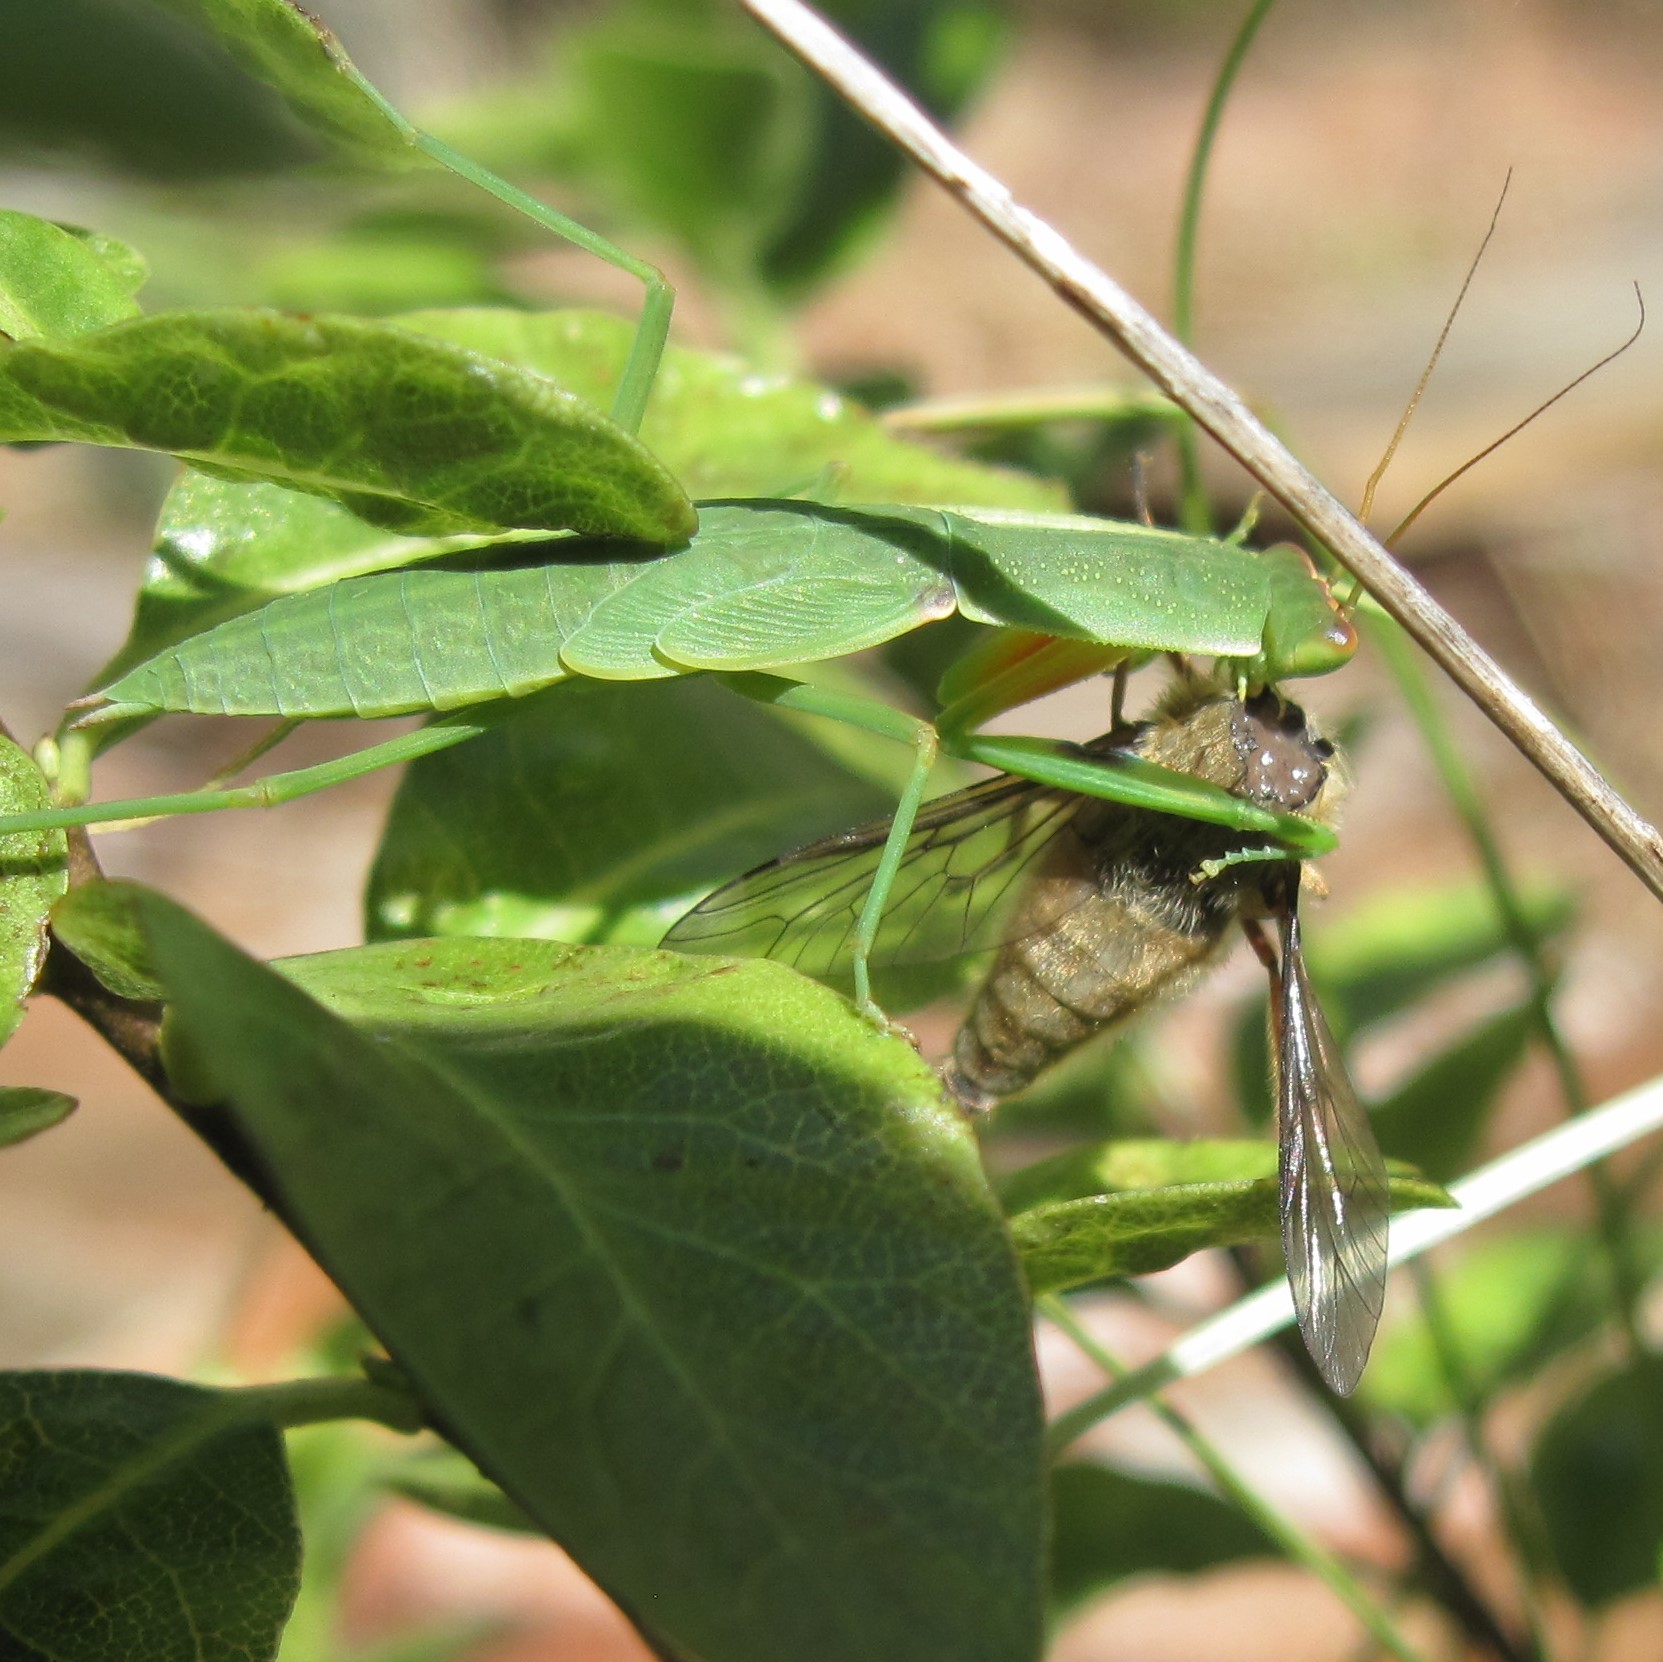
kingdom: Animalia
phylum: Arthropoda
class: Insecta
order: Mantodea
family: Mantidae
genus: Orthodera
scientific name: Orthodera novaezealandiae
